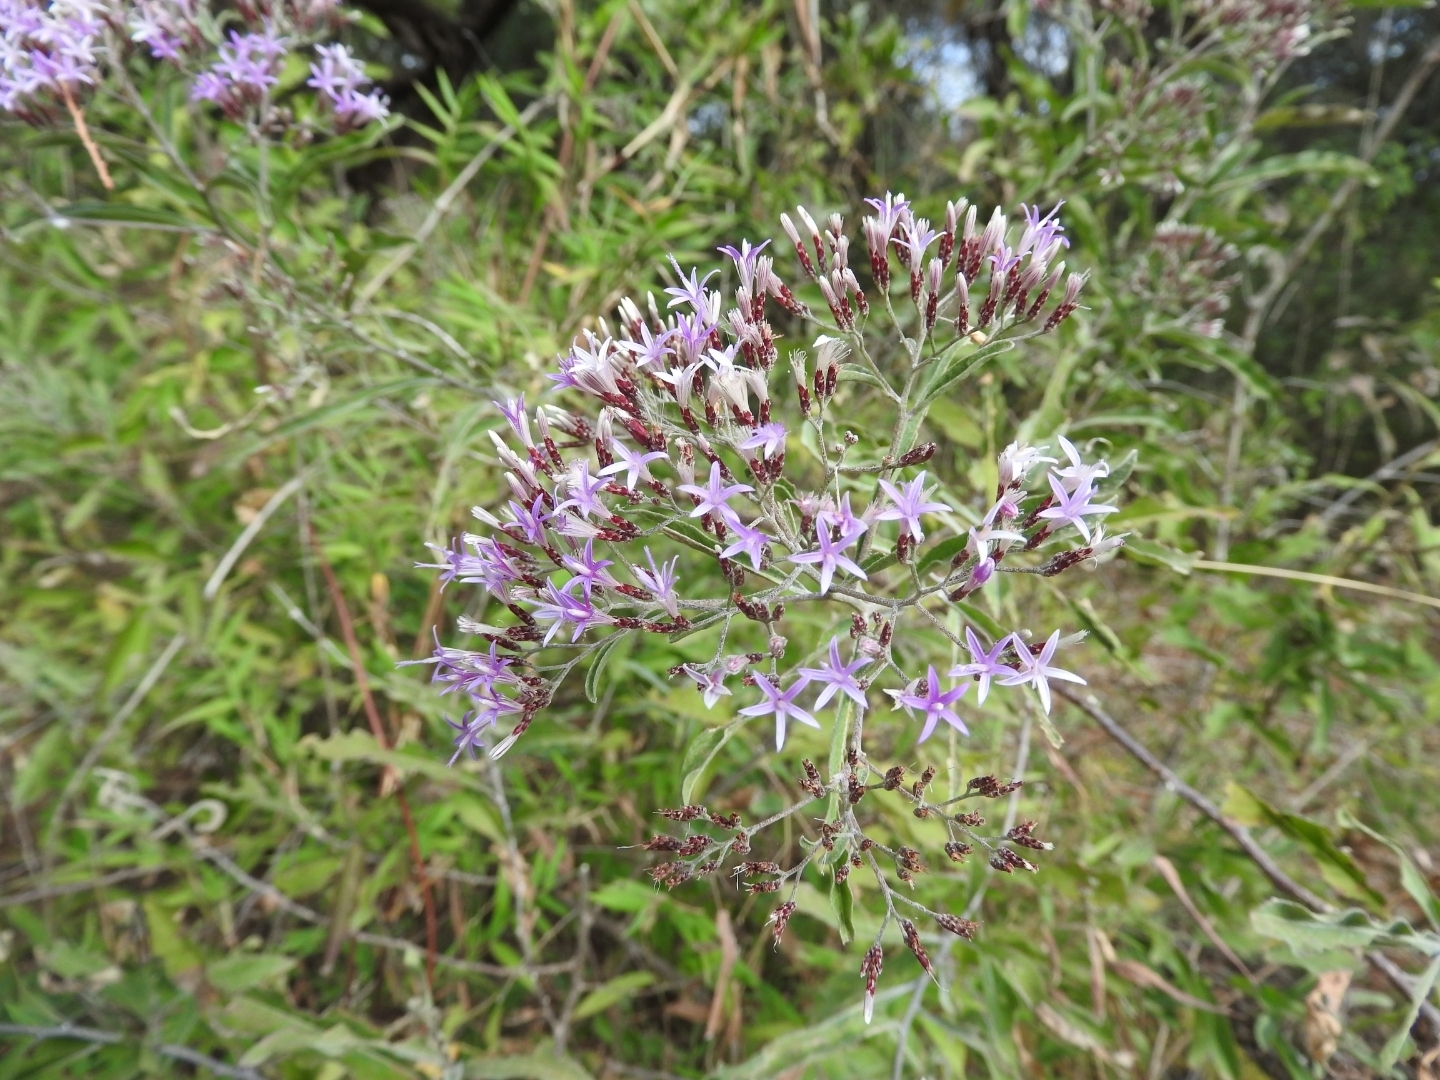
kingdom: Plantae
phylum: Tracheophyta
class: Magnoliopsida
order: Asterales
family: Asteraceae
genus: Eremosis
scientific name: Eremosis corymbosa
